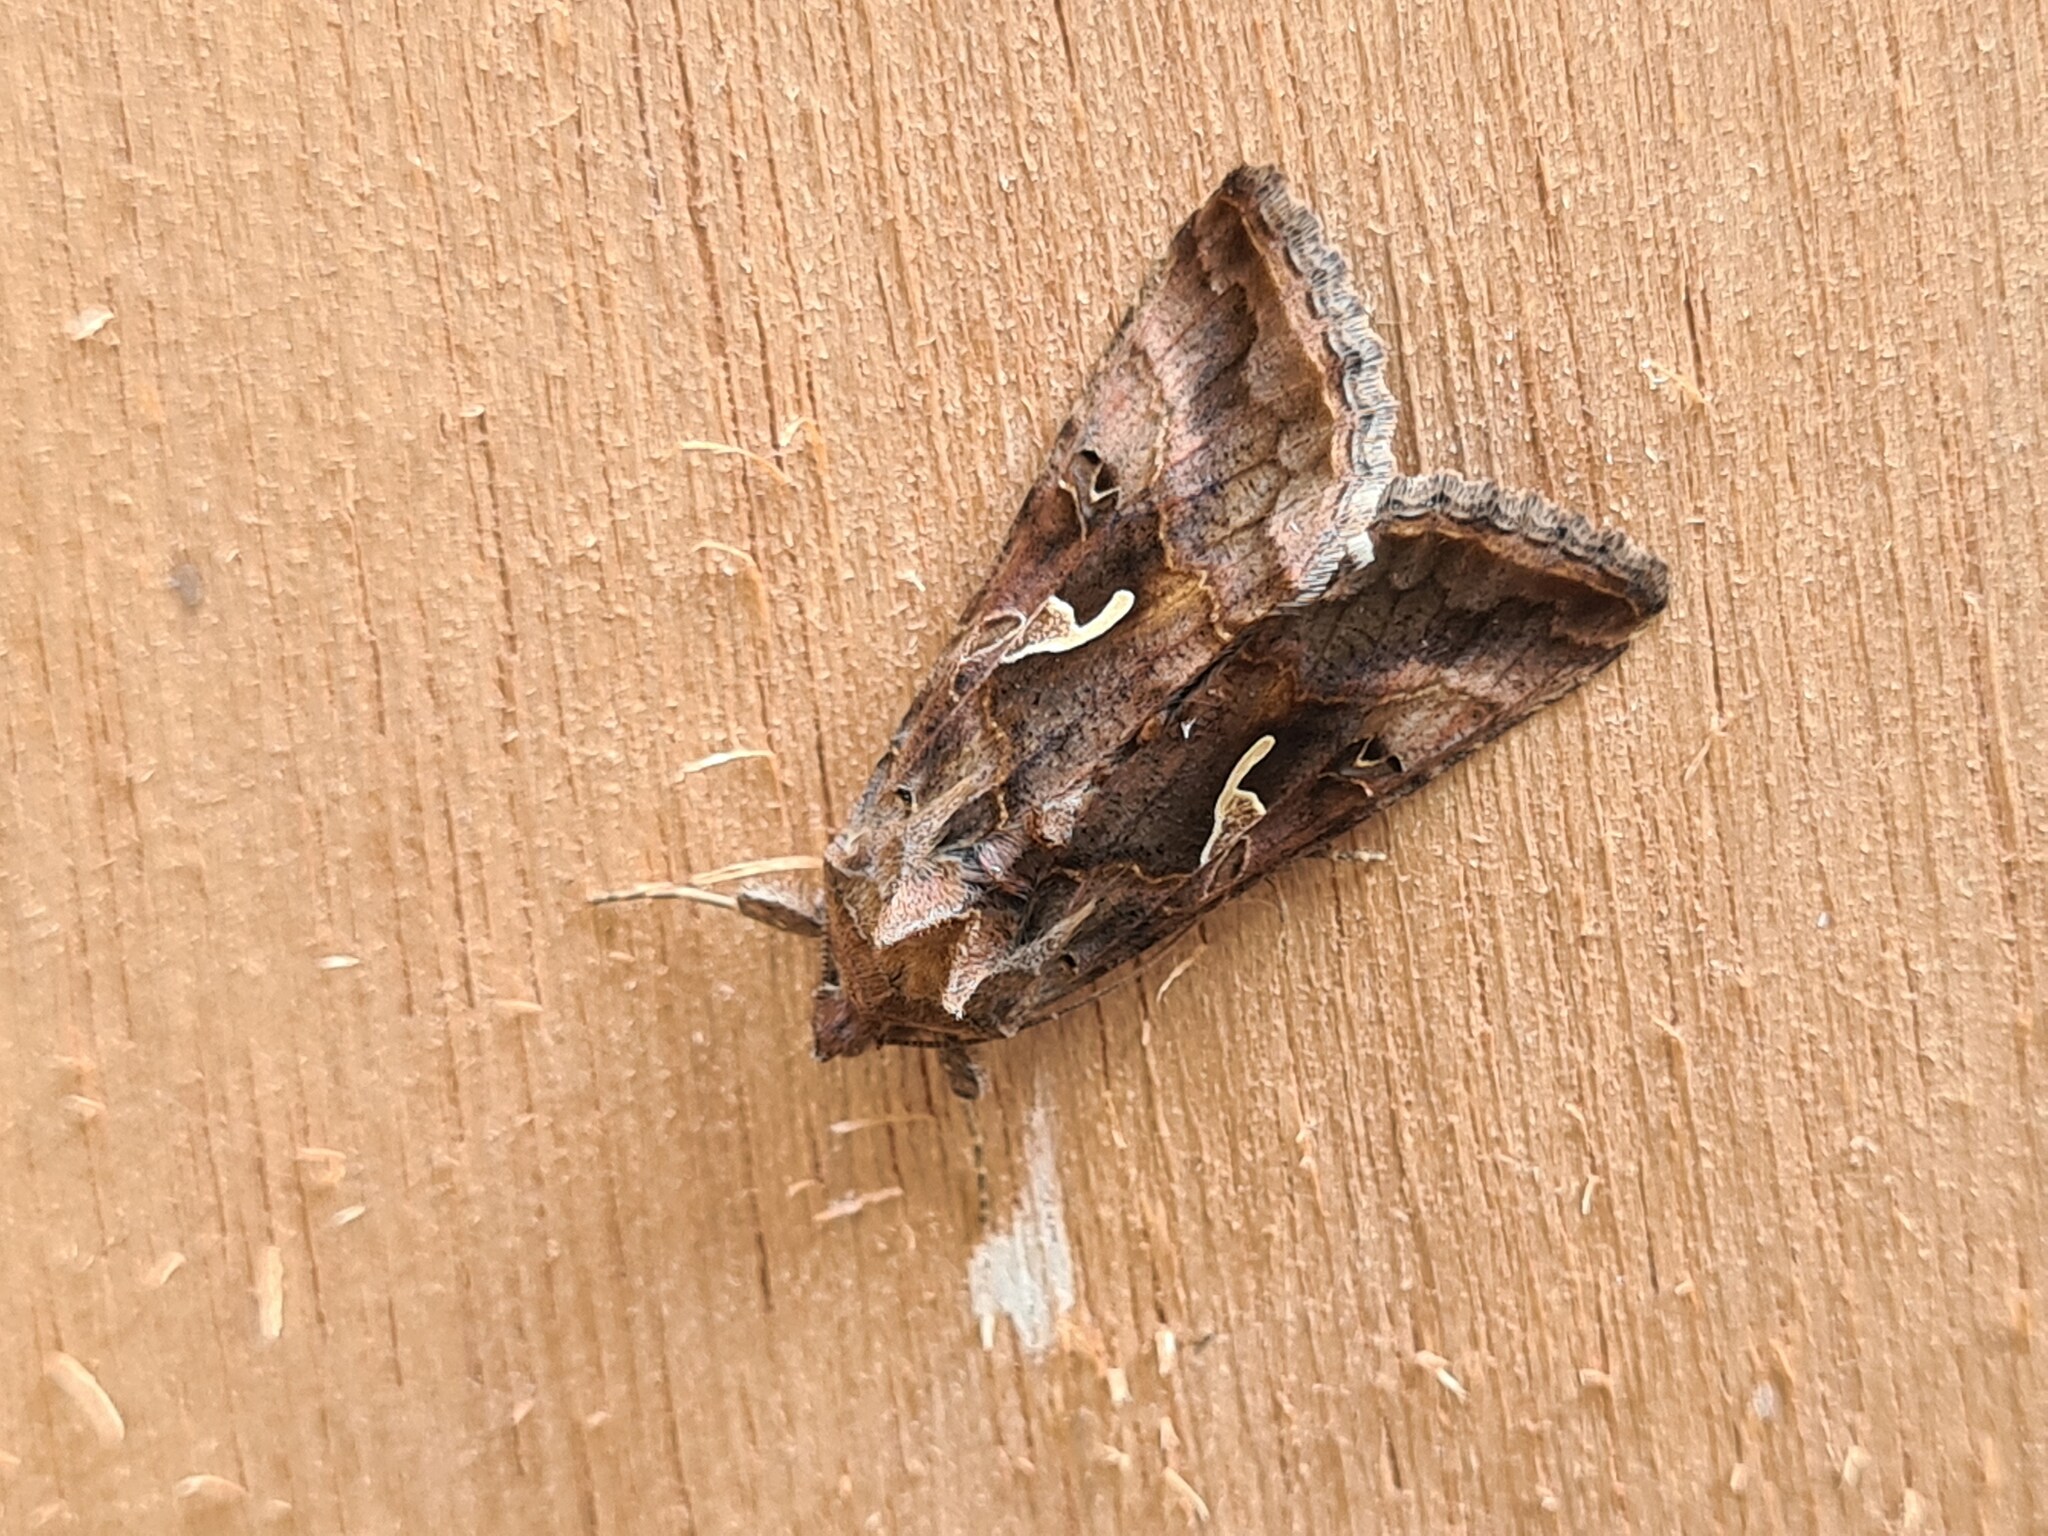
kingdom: Animalia
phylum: Arthropoda
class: Insecta
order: Lepidoptera
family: Noctuidae
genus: Autographa
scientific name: Autographa gamma
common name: Silver y
